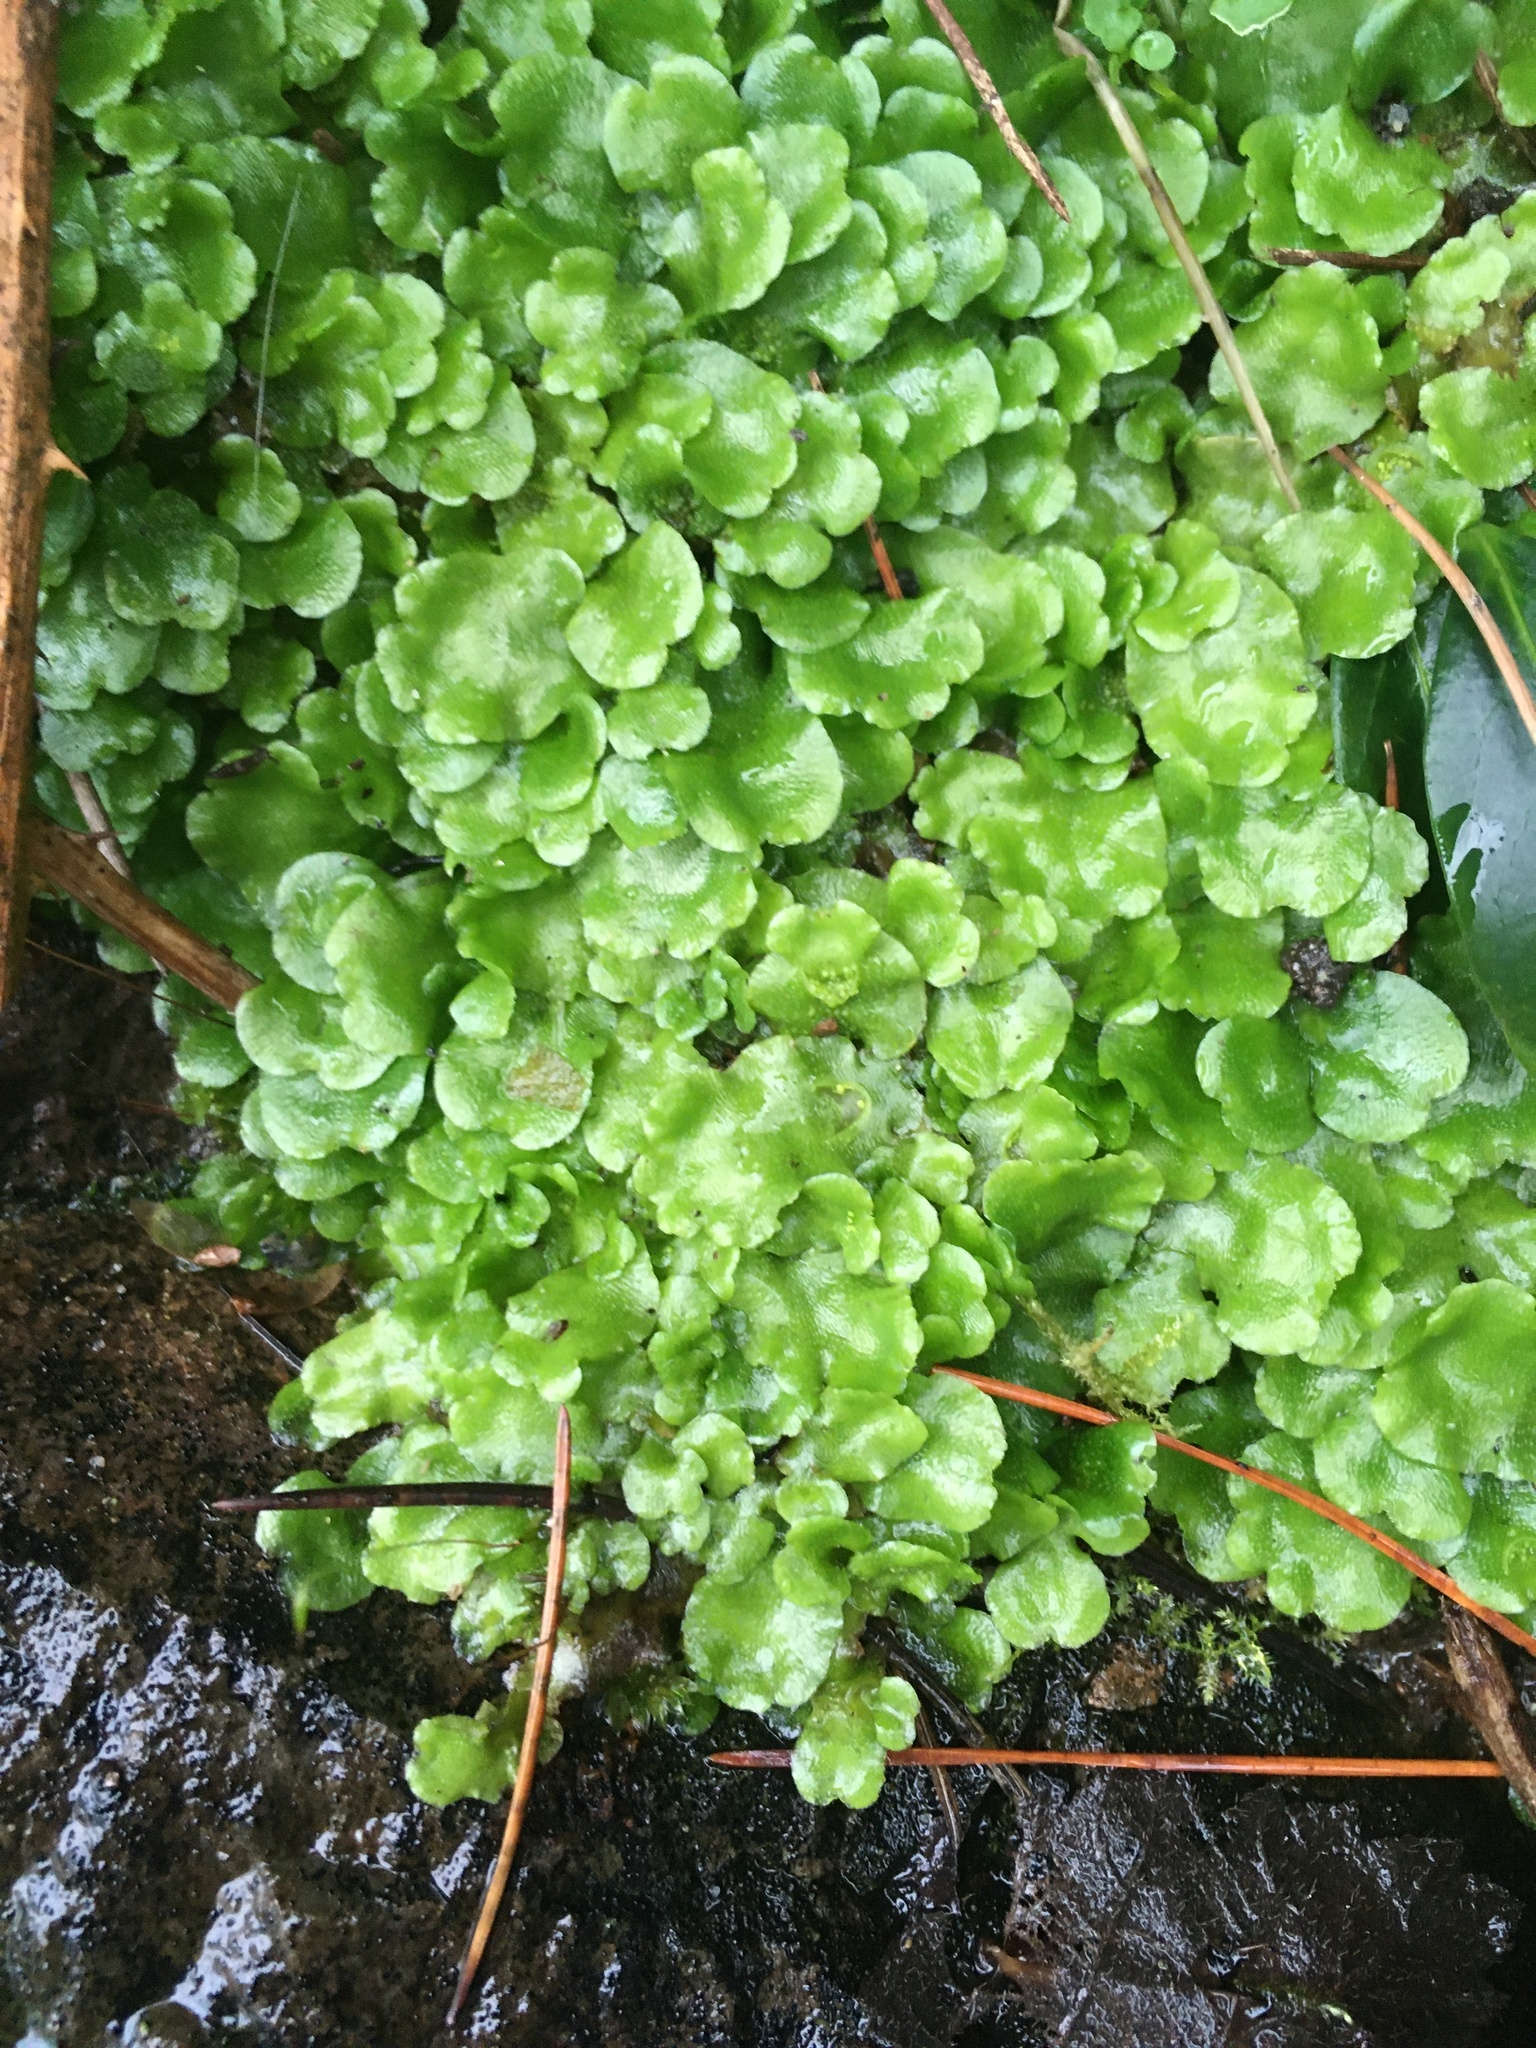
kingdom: Plantae
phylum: Marchantiophyta
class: Marchantiopsida
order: Lunulariales
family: Lunulariaceae
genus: Lunularia
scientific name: Lunularia cruciata
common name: Crescent-cup liverwort
